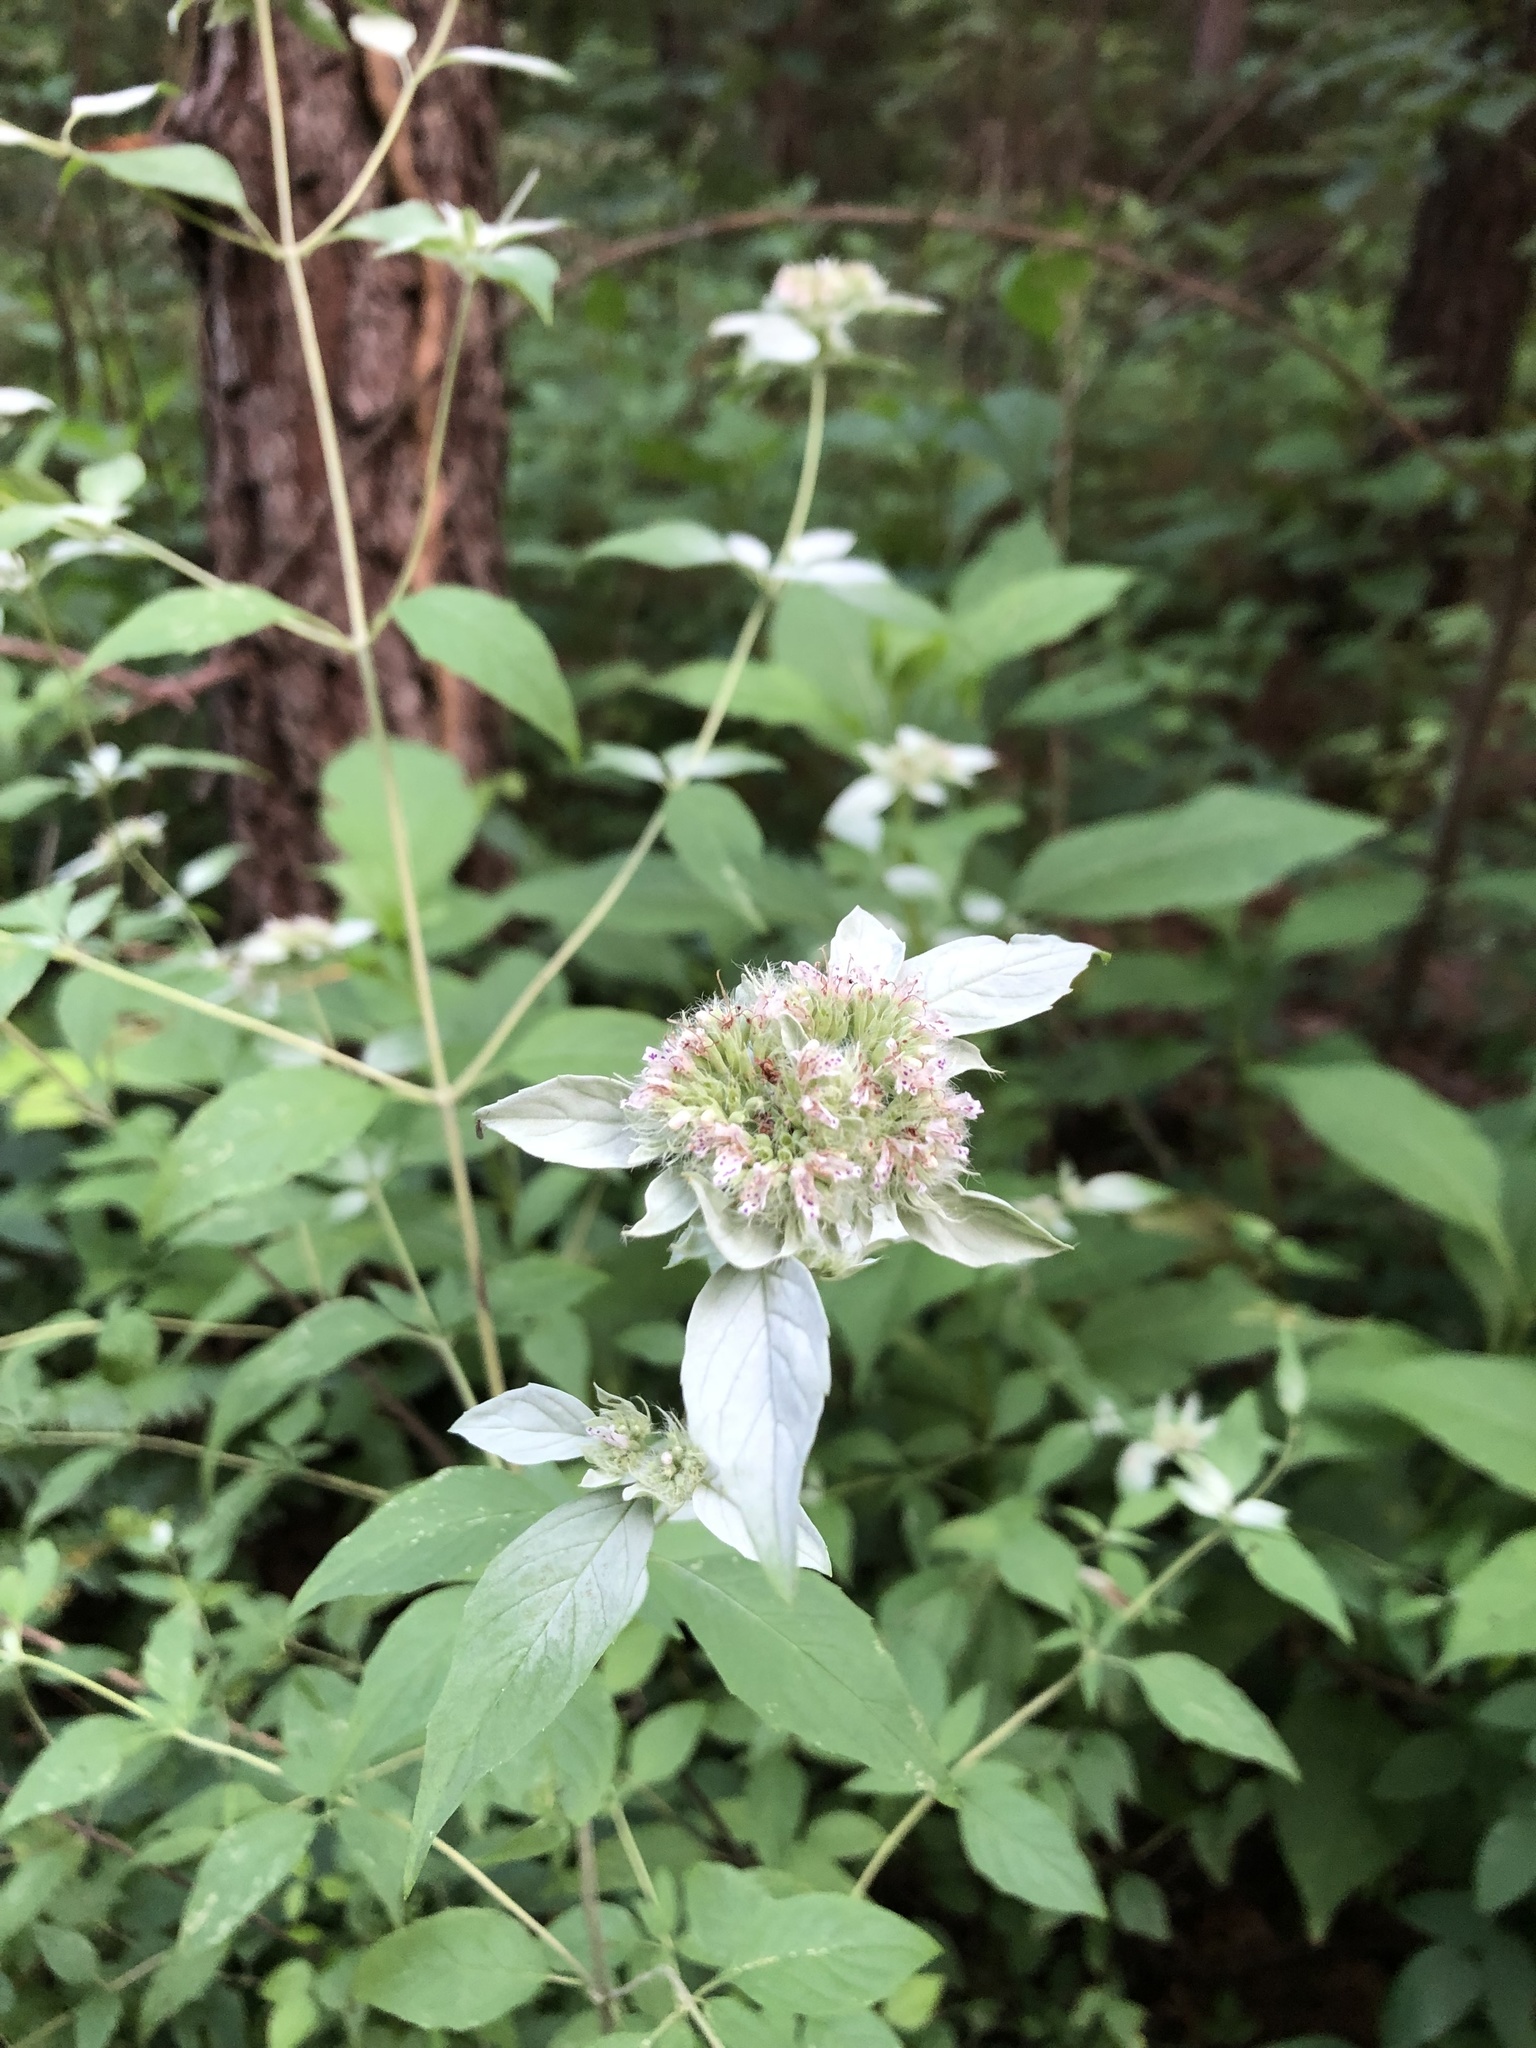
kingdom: Plantae
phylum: Tracheophyta
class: Magnoliopsida
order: Lamiales
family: Lamiaceae
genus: Pycnanthemum
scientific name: Pycnanthemum incanum
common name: Hoary mountain-mint
